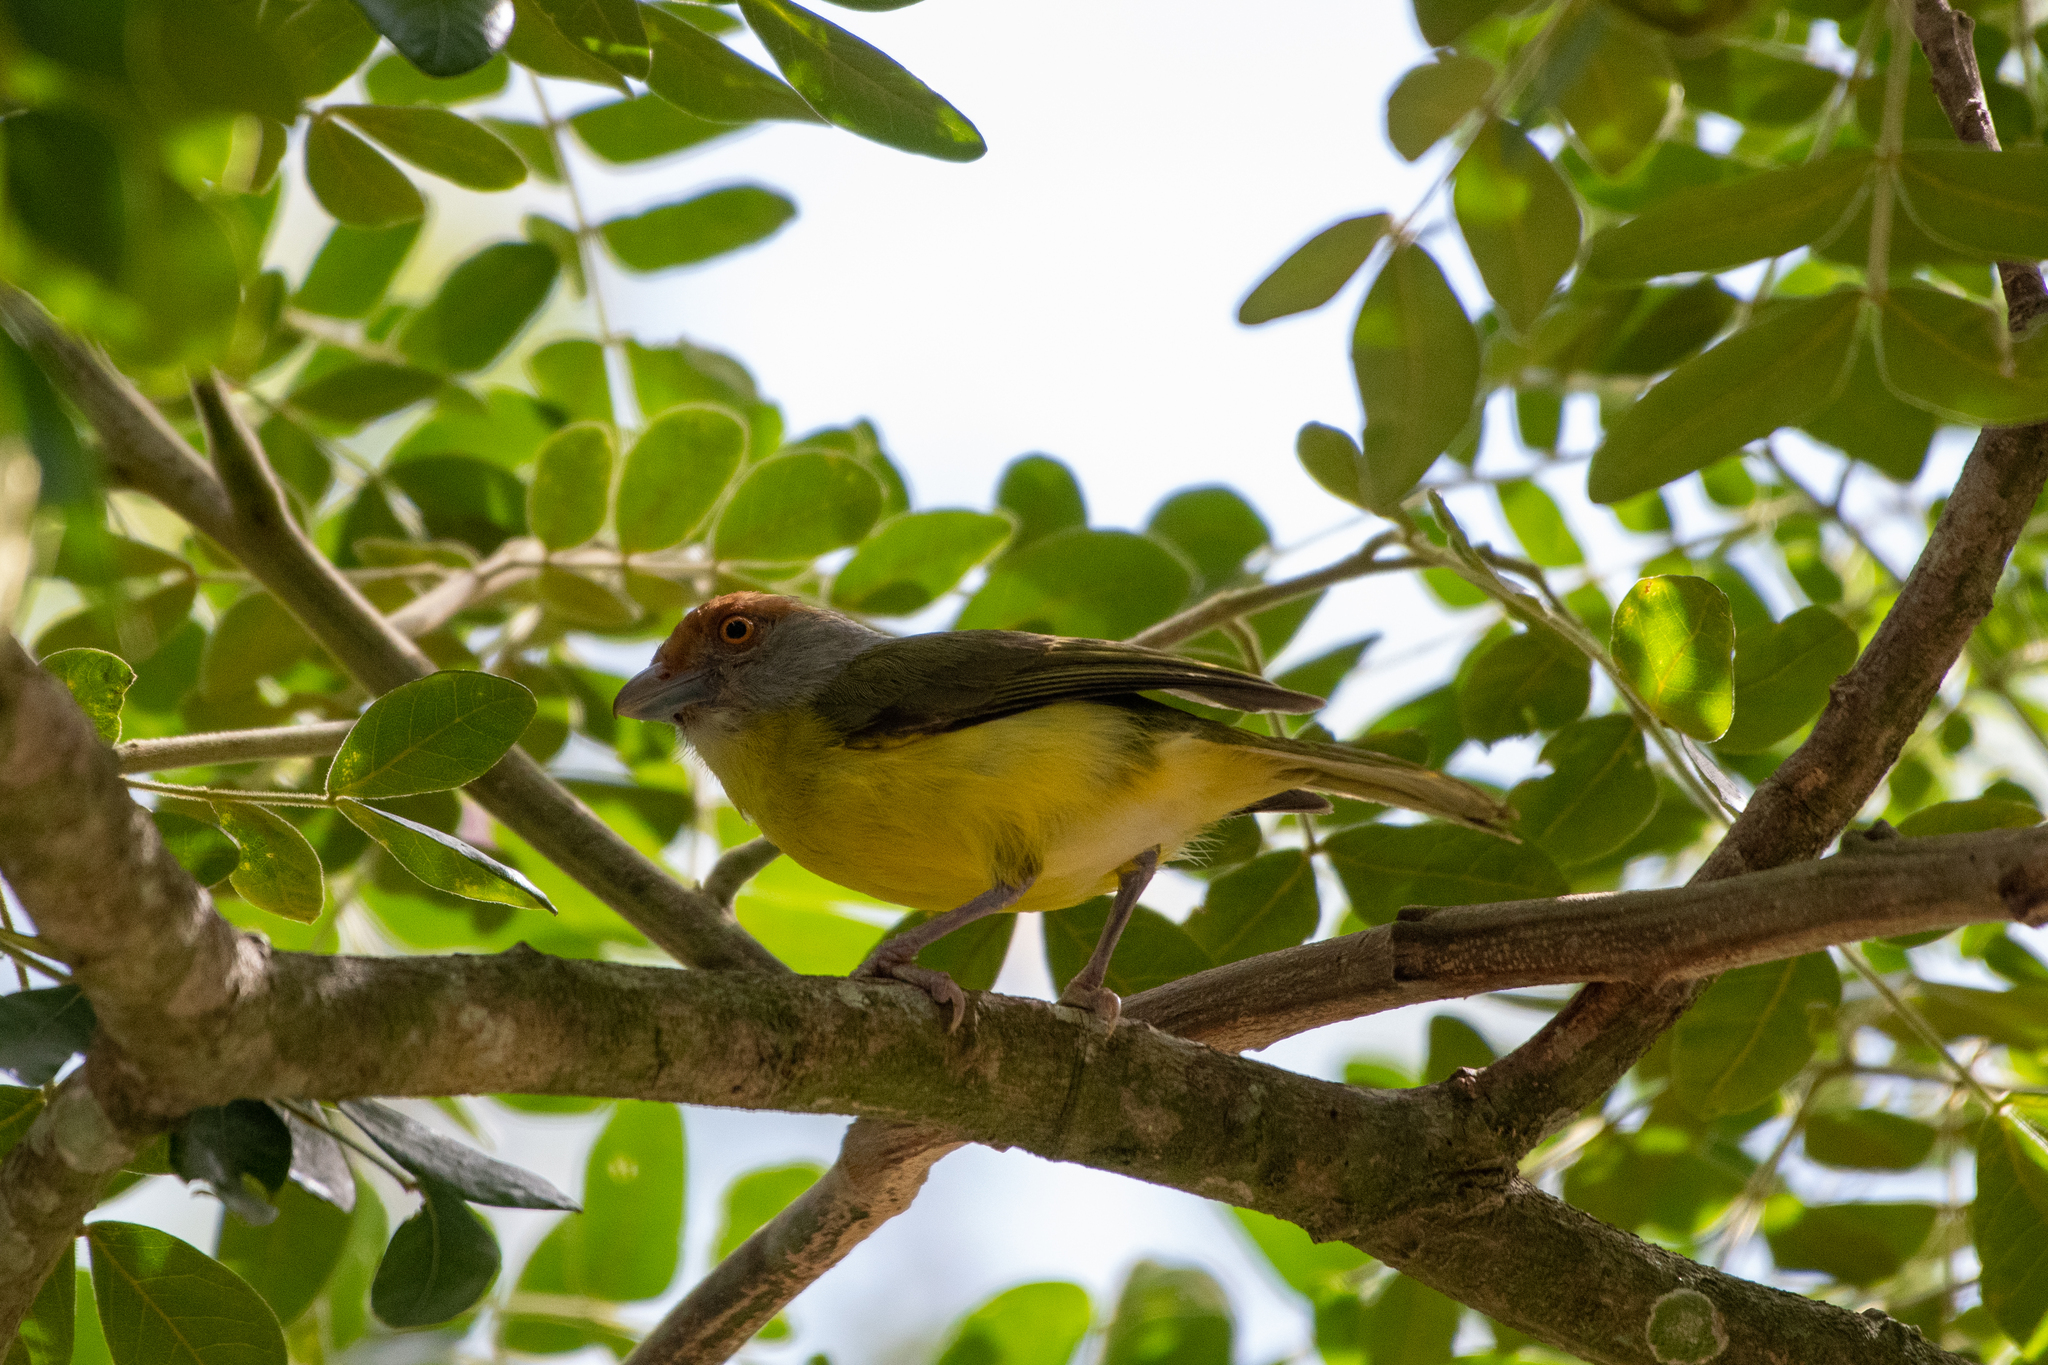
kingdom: Animalia
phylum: Chordata
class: Aves
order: Passeriformes
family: Vireonidae
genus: Cyclarhis
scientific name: Cyclarhis gujanensis
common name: Rufous-browed peppershrike
